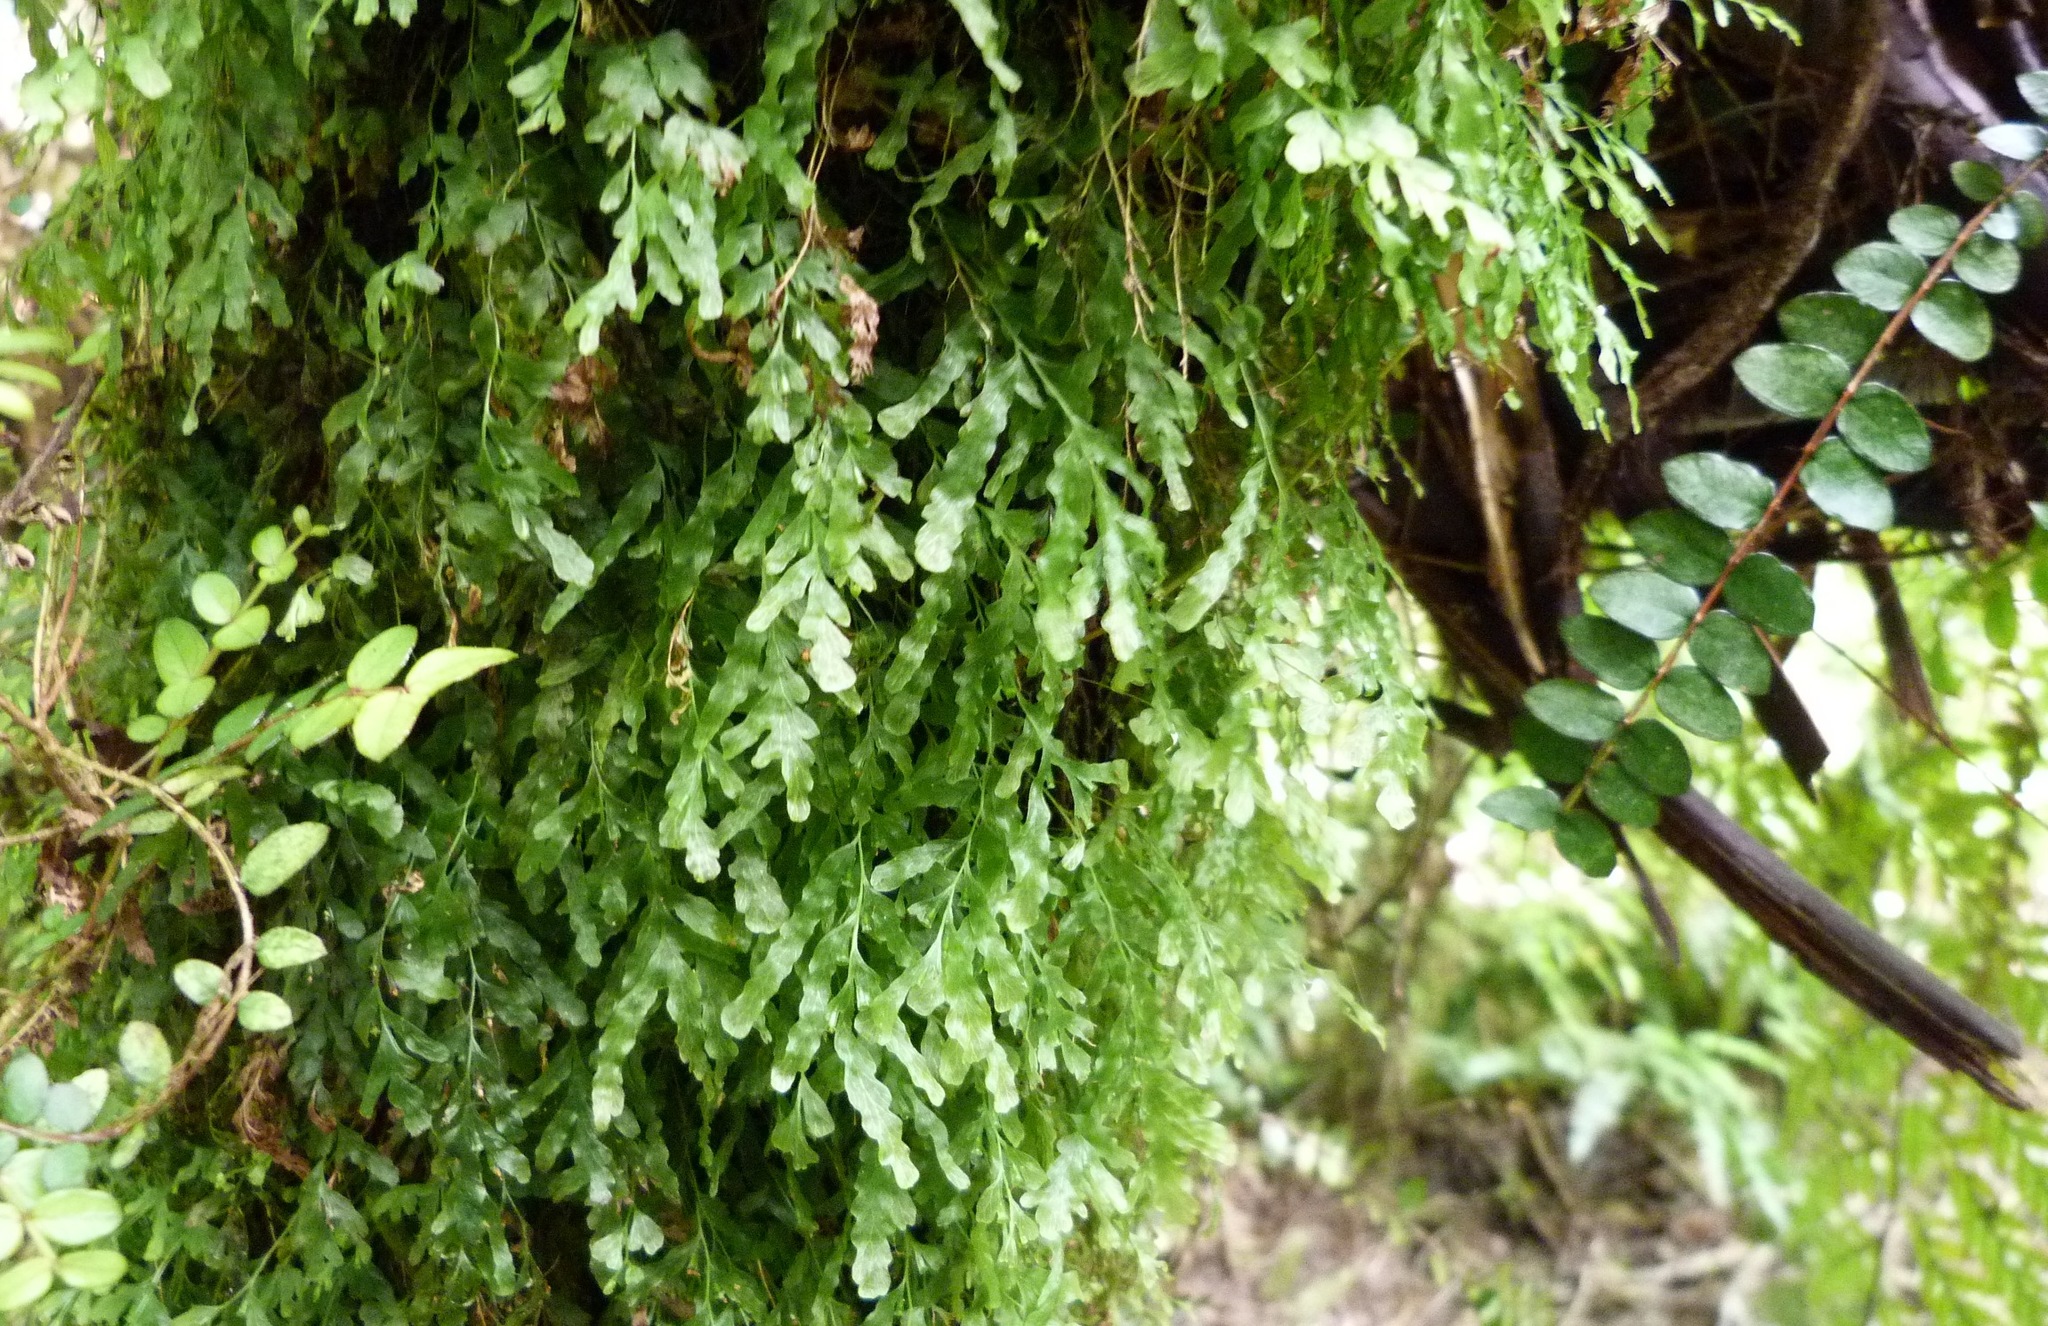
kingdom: Plantae
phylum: Tracheophyta
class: Polypodiopsida
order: Hymenophyllales
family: Hymenophyllaceae
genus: Polyphlebium
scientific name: Polyphlebium venosum
